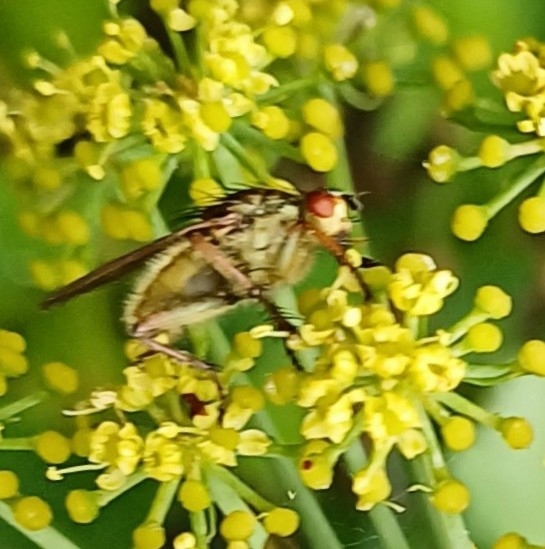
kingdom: Animalia
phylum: Arthropoda
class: Insecta
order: Diptera
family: Scathophagidae
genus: Scathophaga
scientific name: Scathophaga soror
